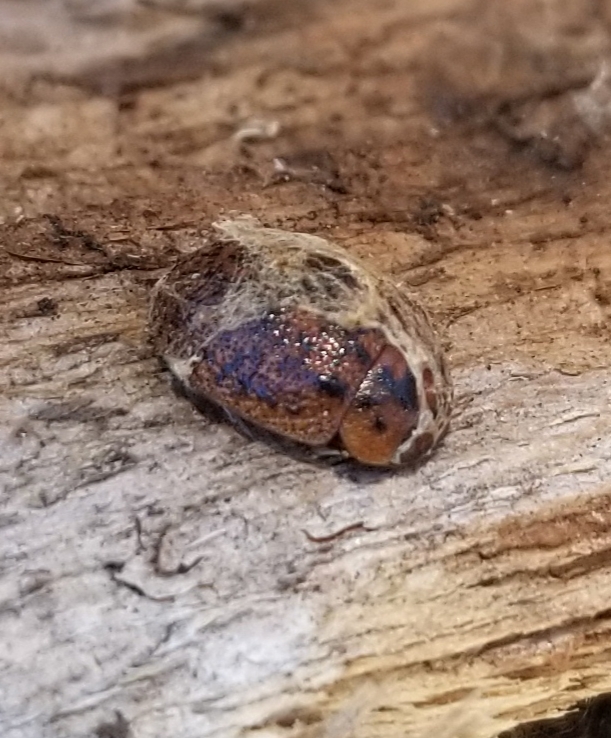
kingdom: Animalia
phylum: Arthropoda
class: Insecta
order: Coleoptera
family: Chrysomelidae
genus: Trachymela
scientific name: Trachymela sloanei
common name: Australian tortoise beetle
